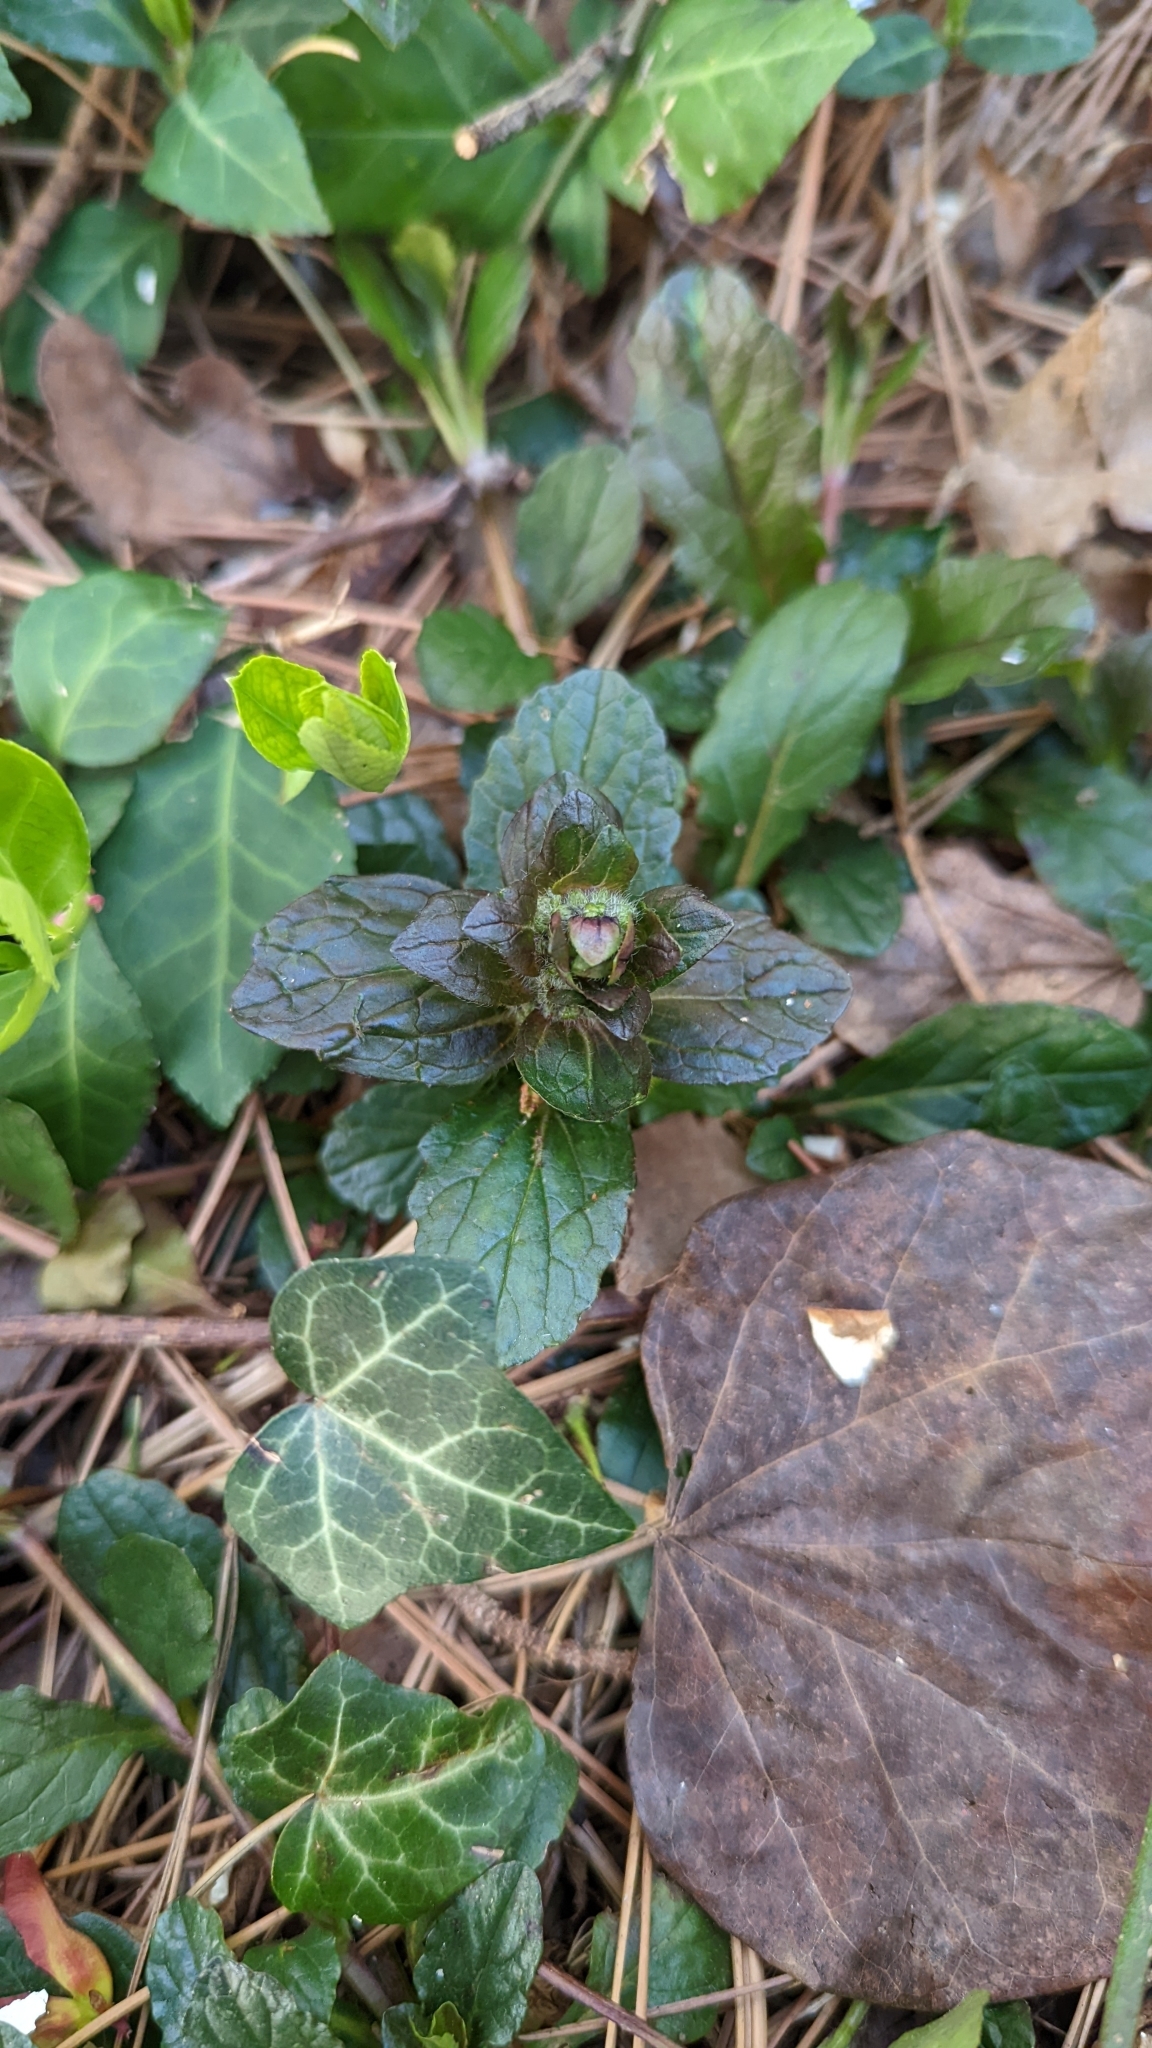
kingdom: Plantae
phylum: Tracheophyta
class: Magnoliopsida
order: Lamiales
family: Lamiaceae
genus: Ajuga
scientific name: Ajuga reptans
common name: Bugle
